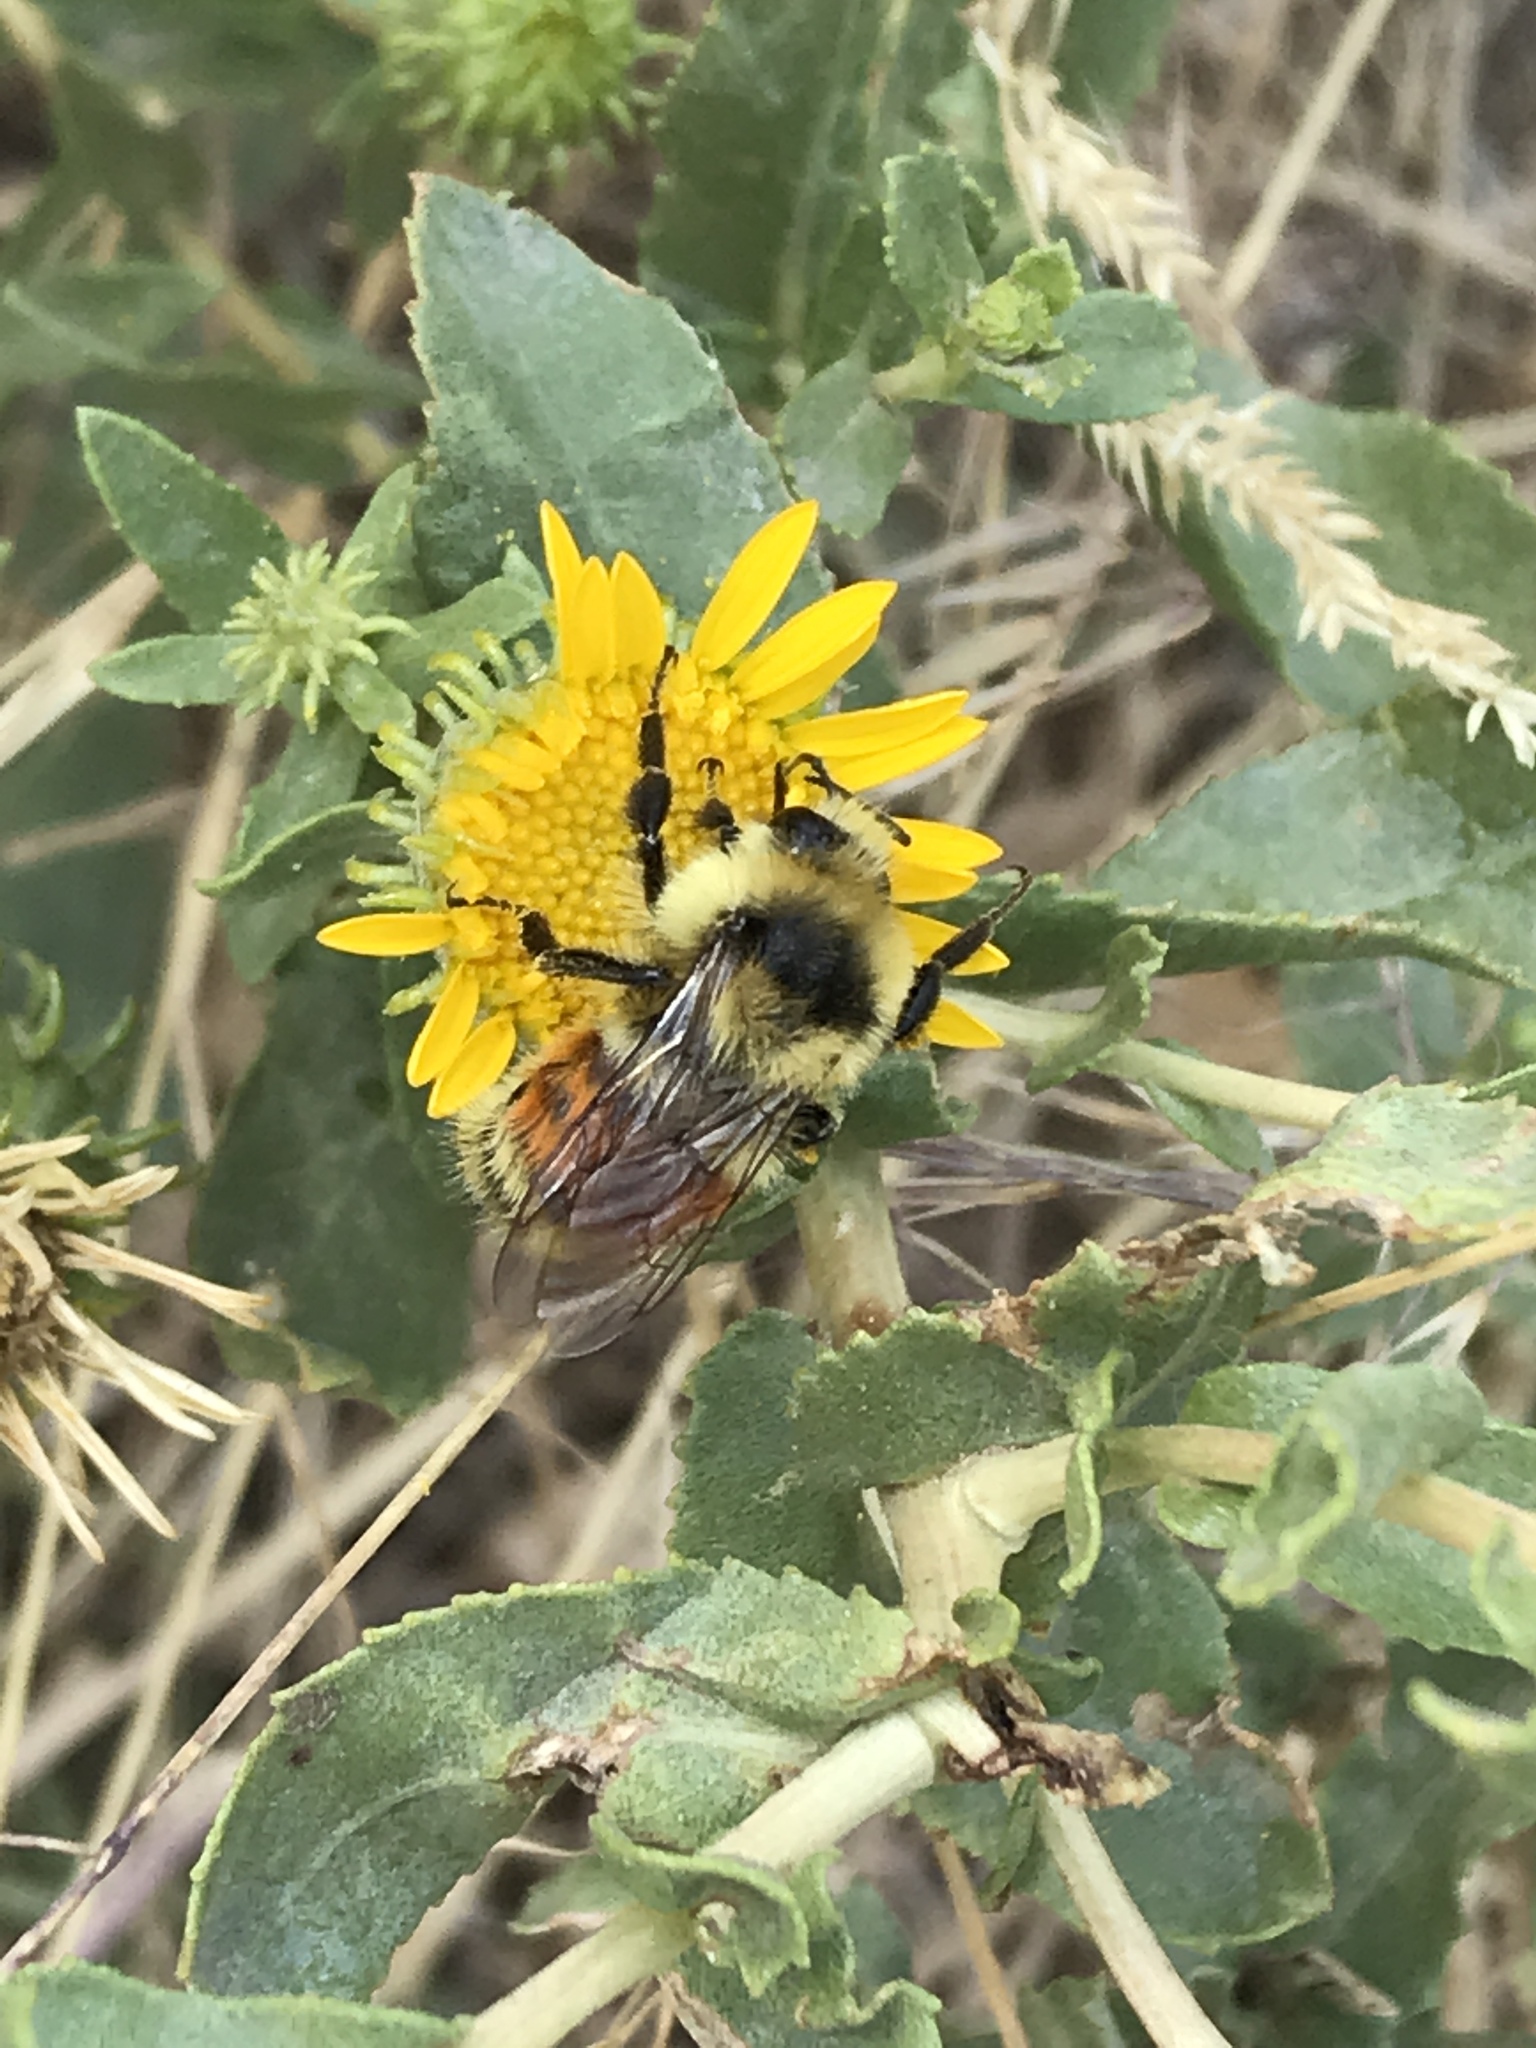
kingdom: Animalia
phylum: Arthropoda
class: Insecta
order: Hymenoptera
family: Apidae
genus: Pyrobombus
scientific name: Pyrobombus
